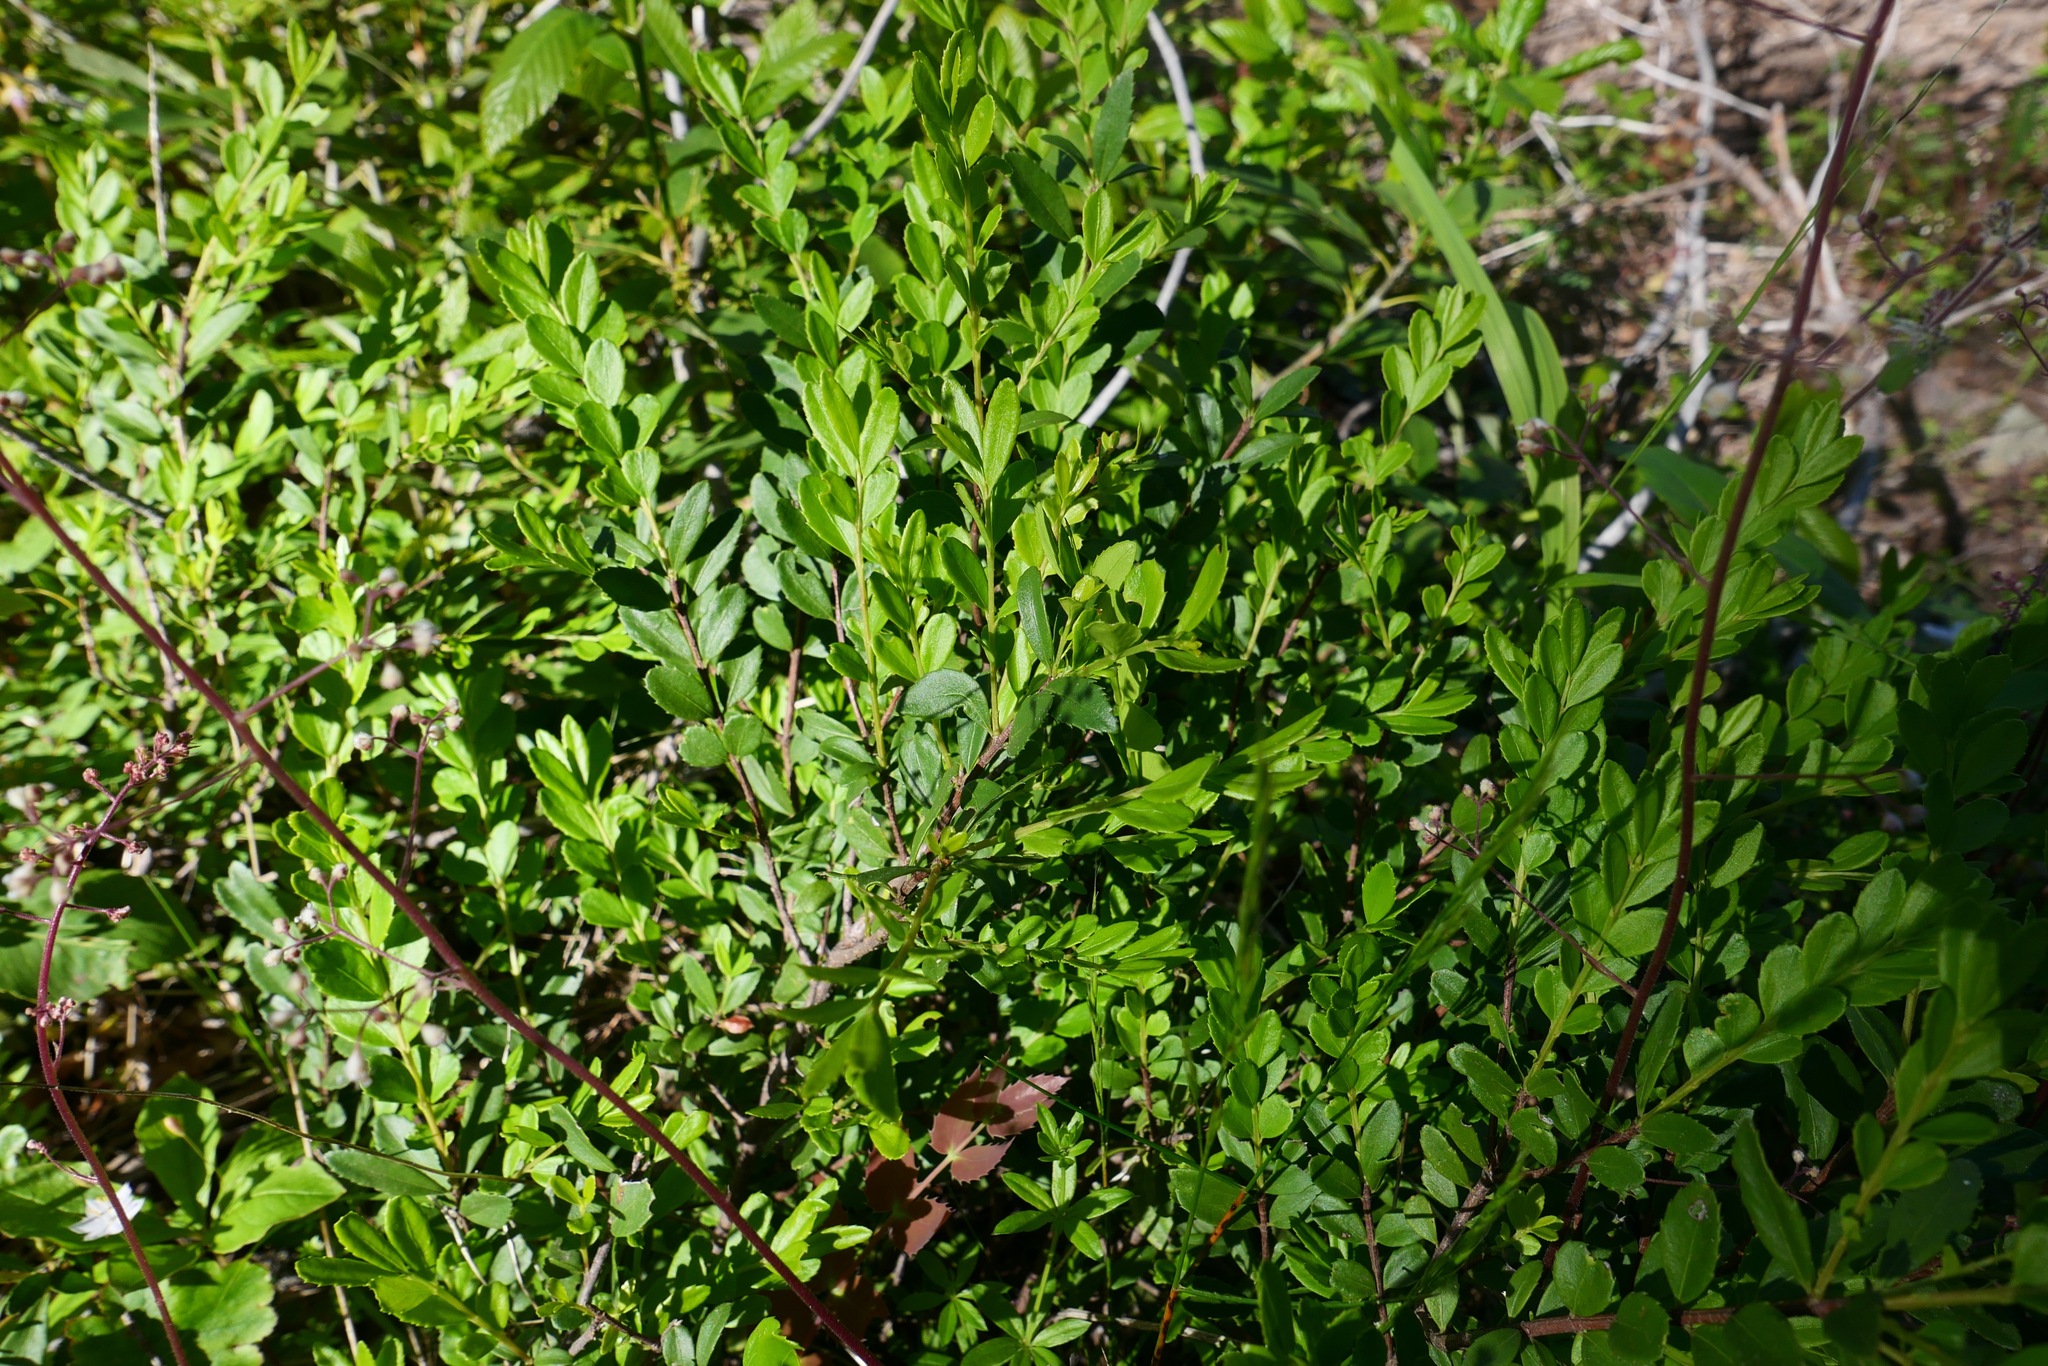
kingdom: Plantae
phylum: Tracheophyta
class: Magnoliopsida
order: Celastrales
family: Celastraceae
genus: Paxistima
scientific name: Paxistima myrsinites
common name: Mountain-lover
